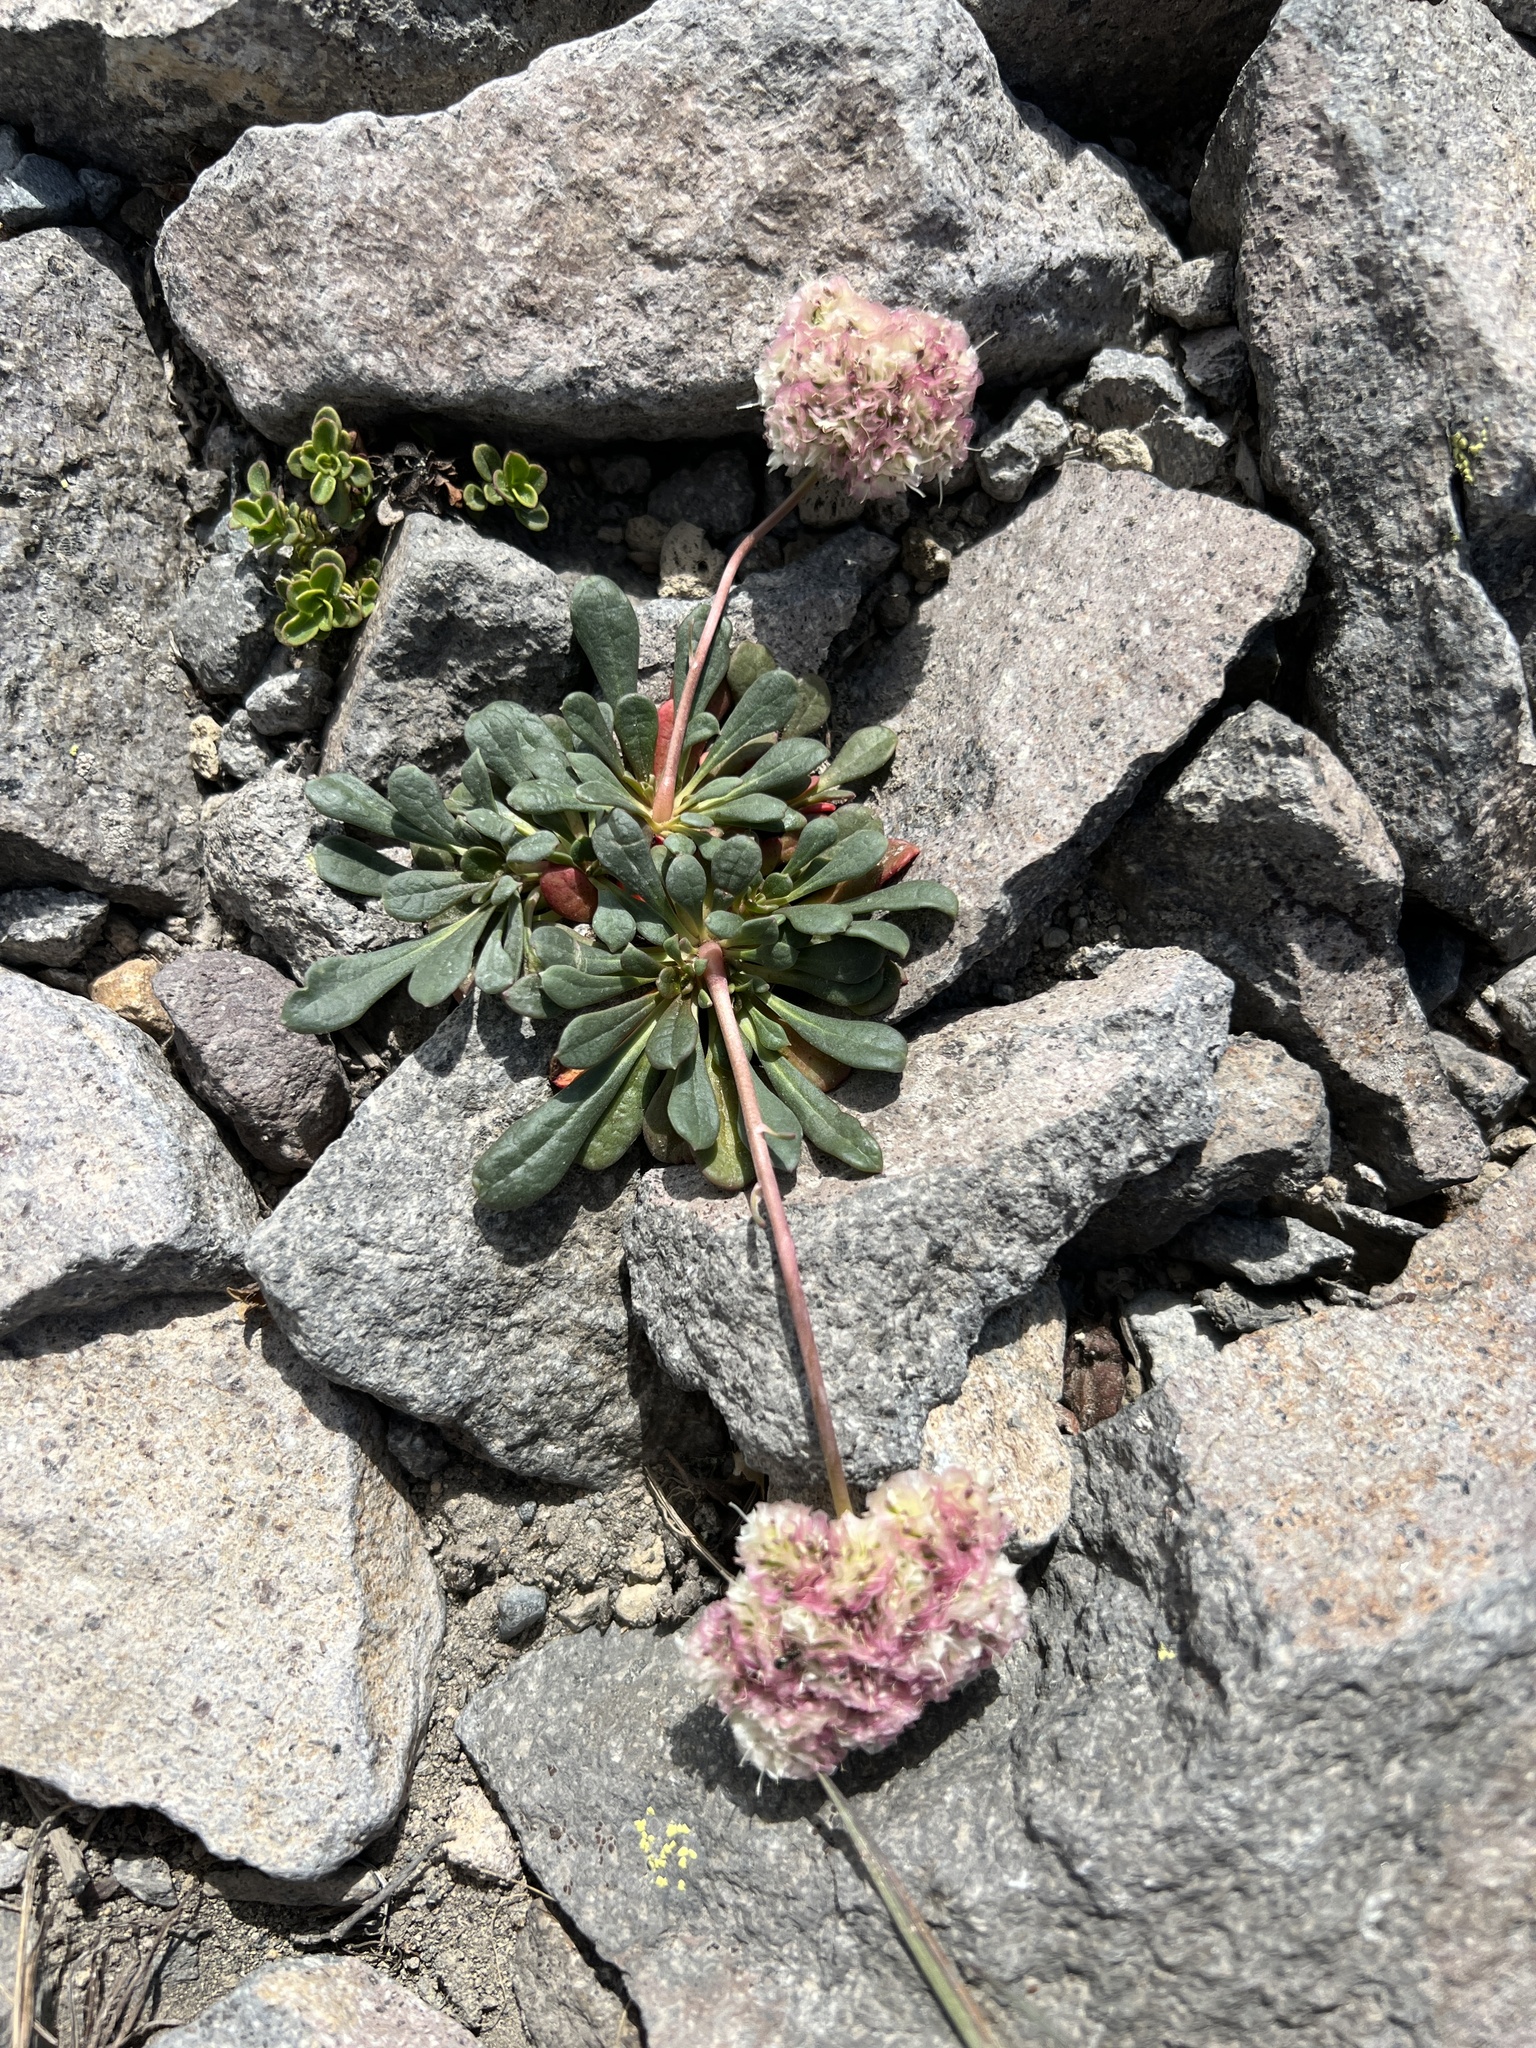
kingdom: Plantae
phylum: Tracheophyta
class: Magnoliopsida
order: Caryophyllales
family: Montiaceae
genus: Calyptridium
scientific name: Calyptridium umbellatum
